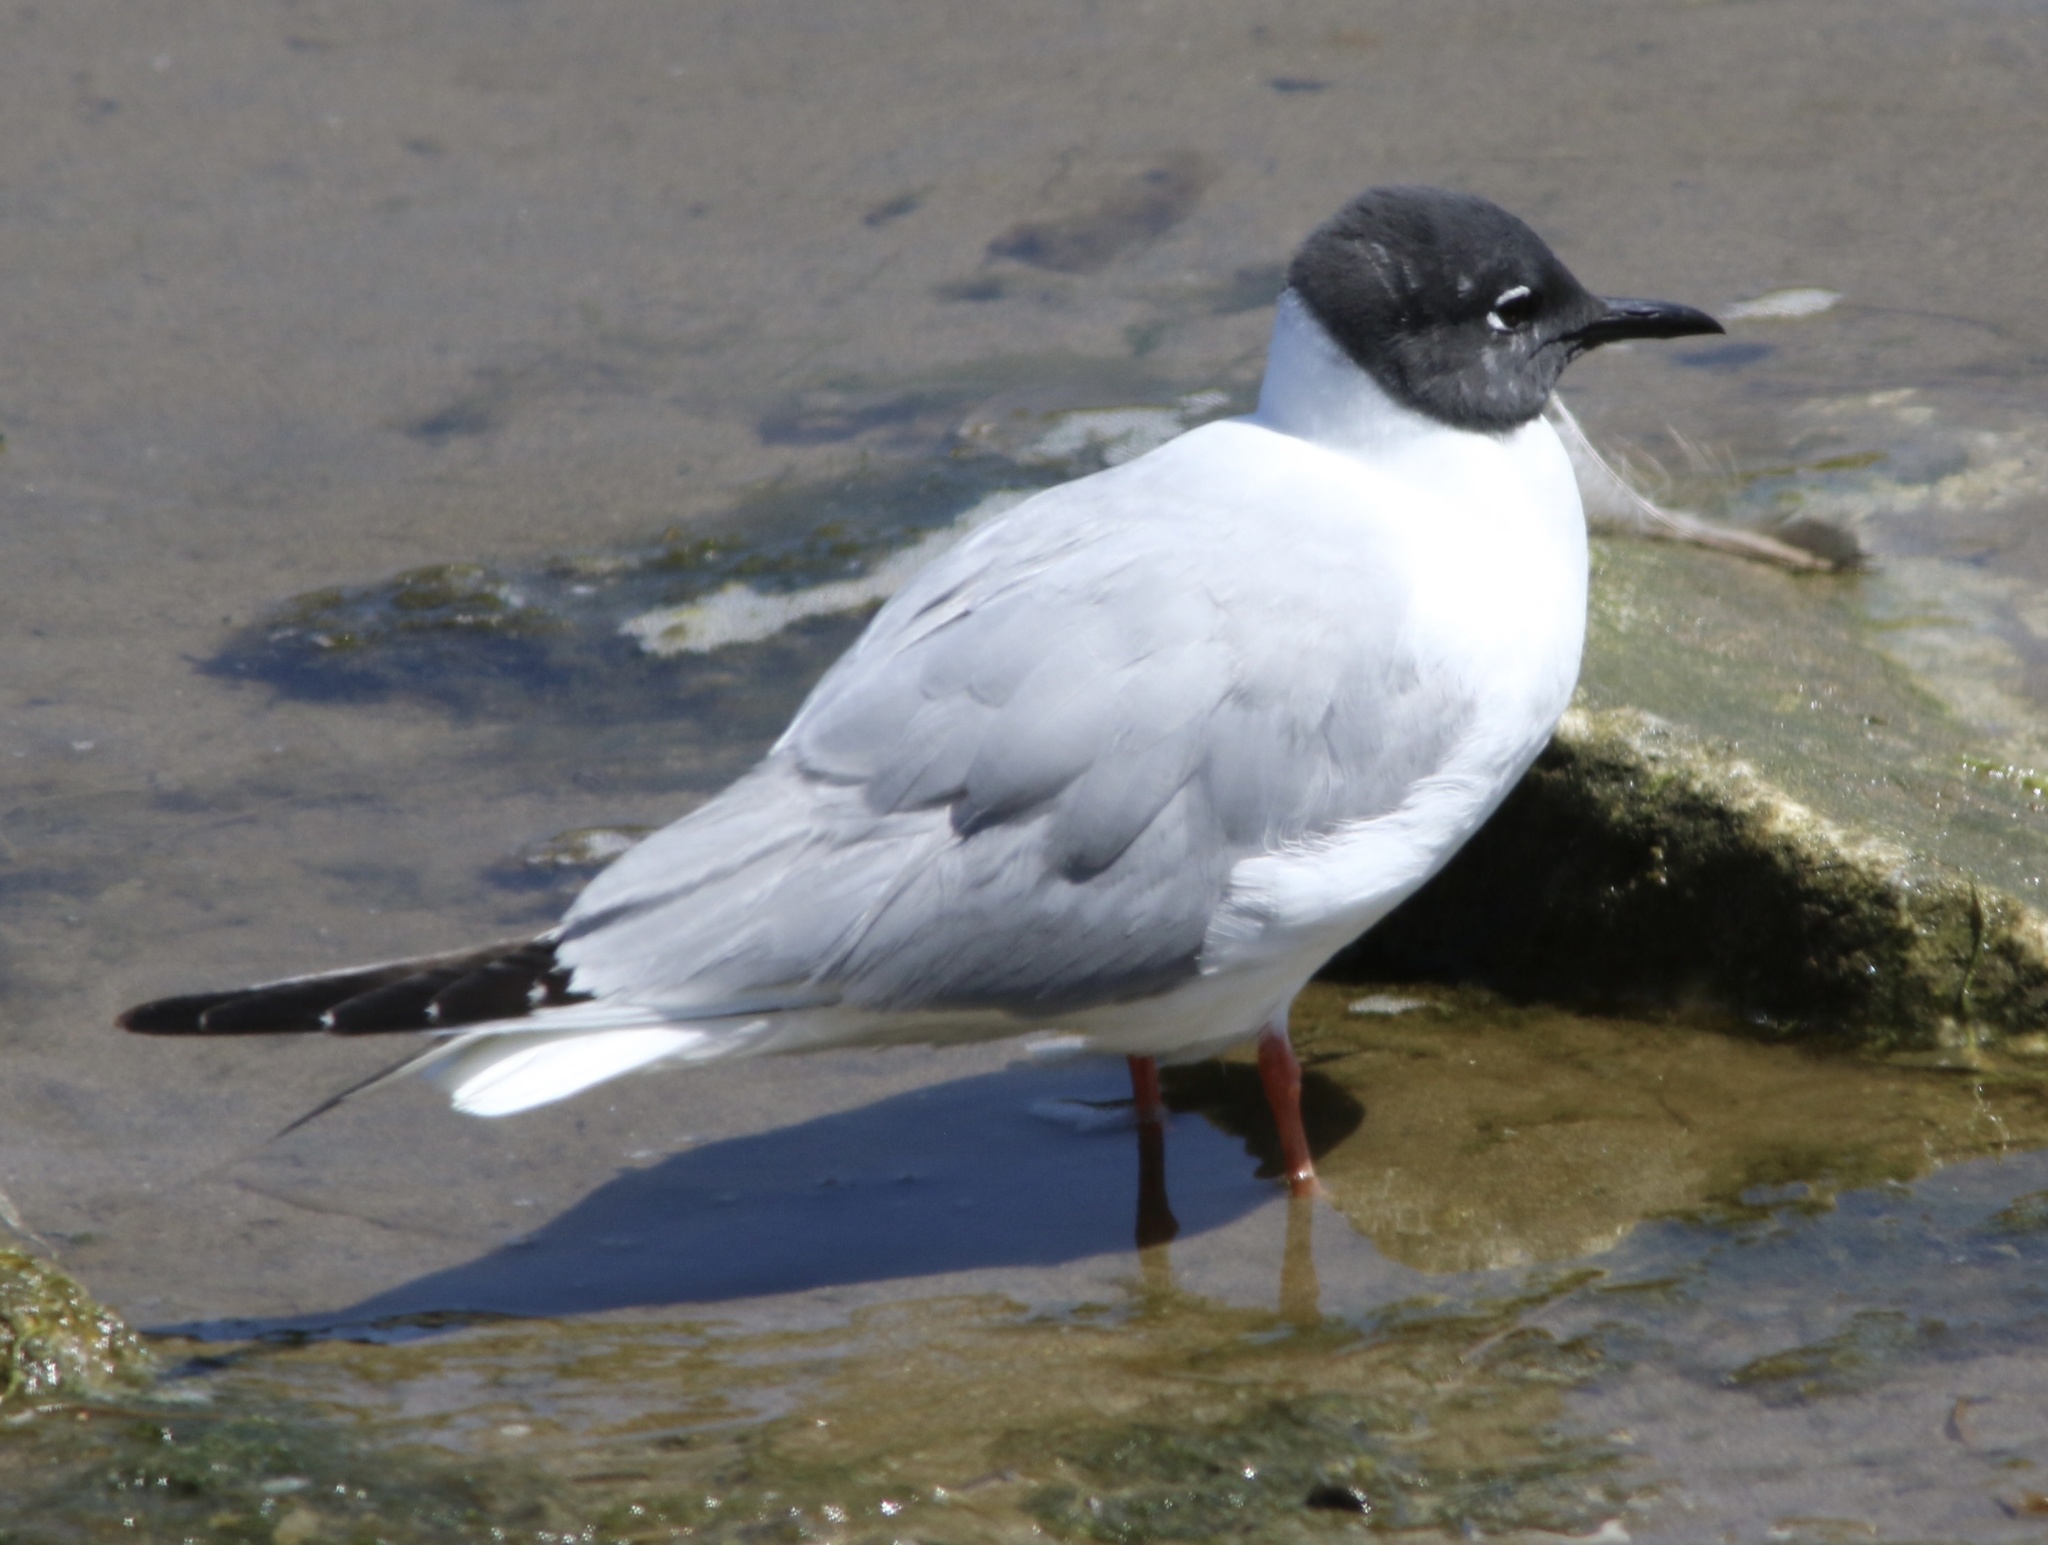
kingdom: Animalia
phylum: Chordata
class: Aves
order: Charadriiformes
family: Laridae
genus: Chroicocephalus
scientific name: Chroicocephalus philadelphia
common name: Bonaparte's gull
